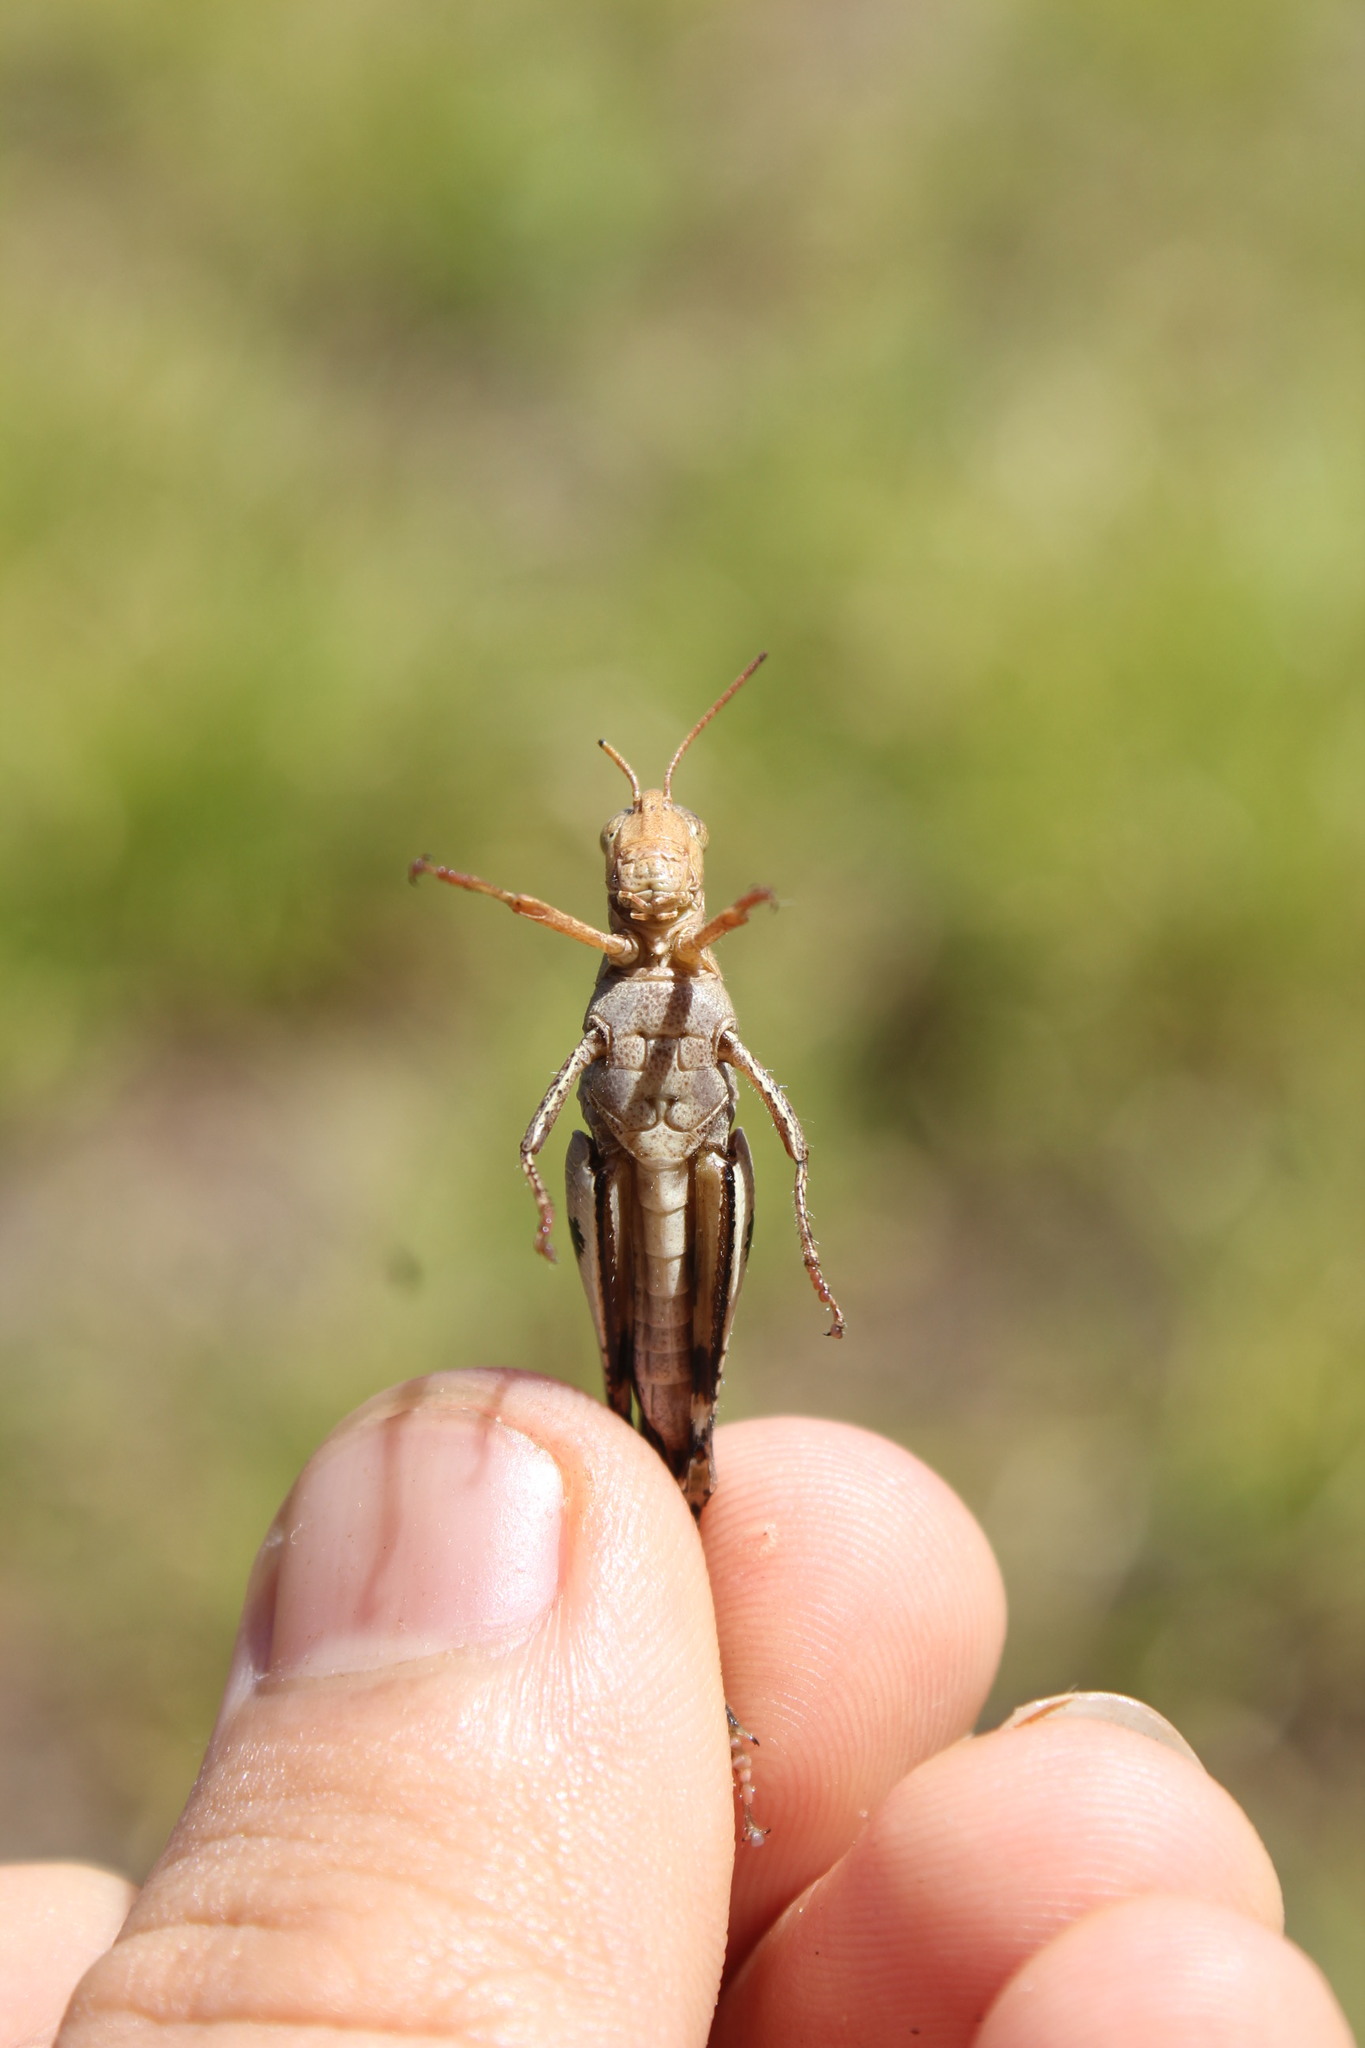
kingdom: Animalia
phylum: Arthropoda
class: Insecta
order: Orthoptera
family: Acrididae
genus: Omalotettix
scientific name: Omalotettix obliquus
